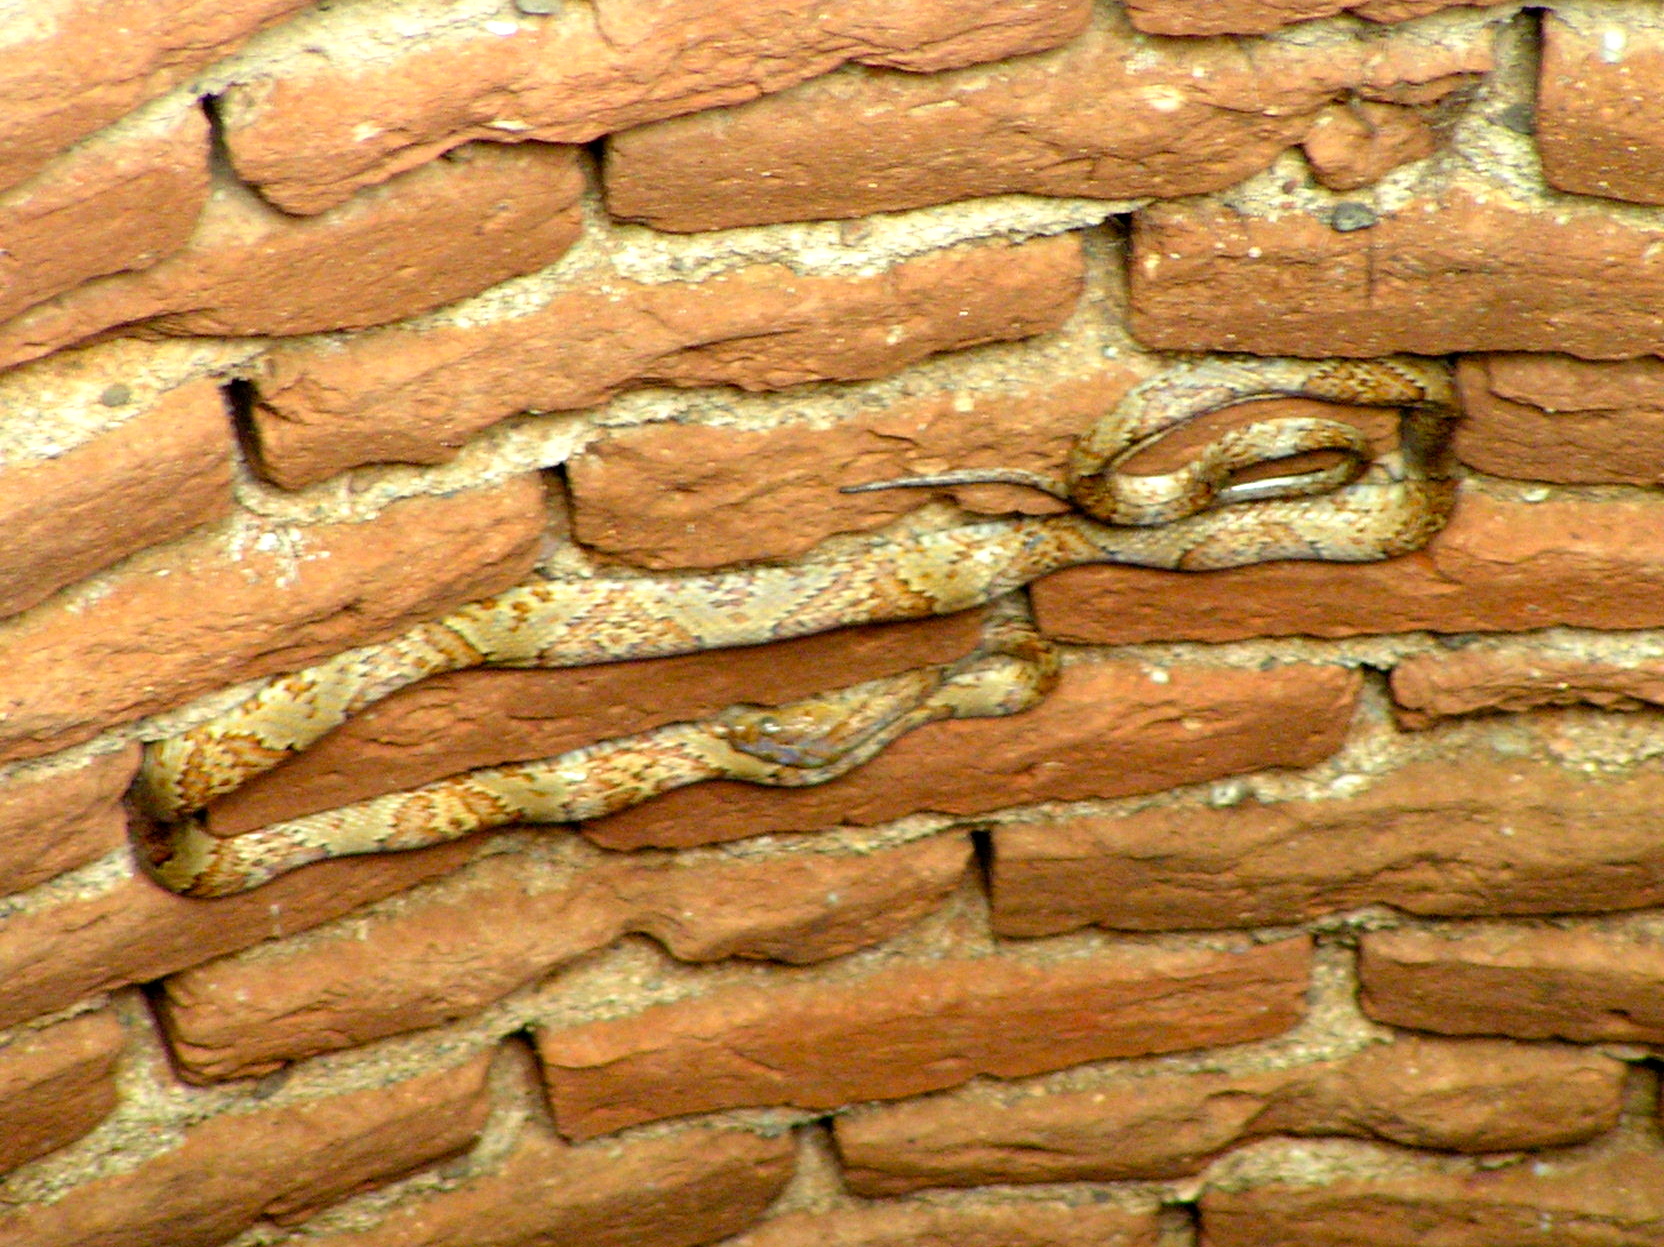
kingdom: Animalia
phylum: Chordata
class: Squamata
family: Colubridae
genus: Trimorphodon
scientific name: Trimorphodon paucimaculatus
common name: Sinaloan lyresnake
